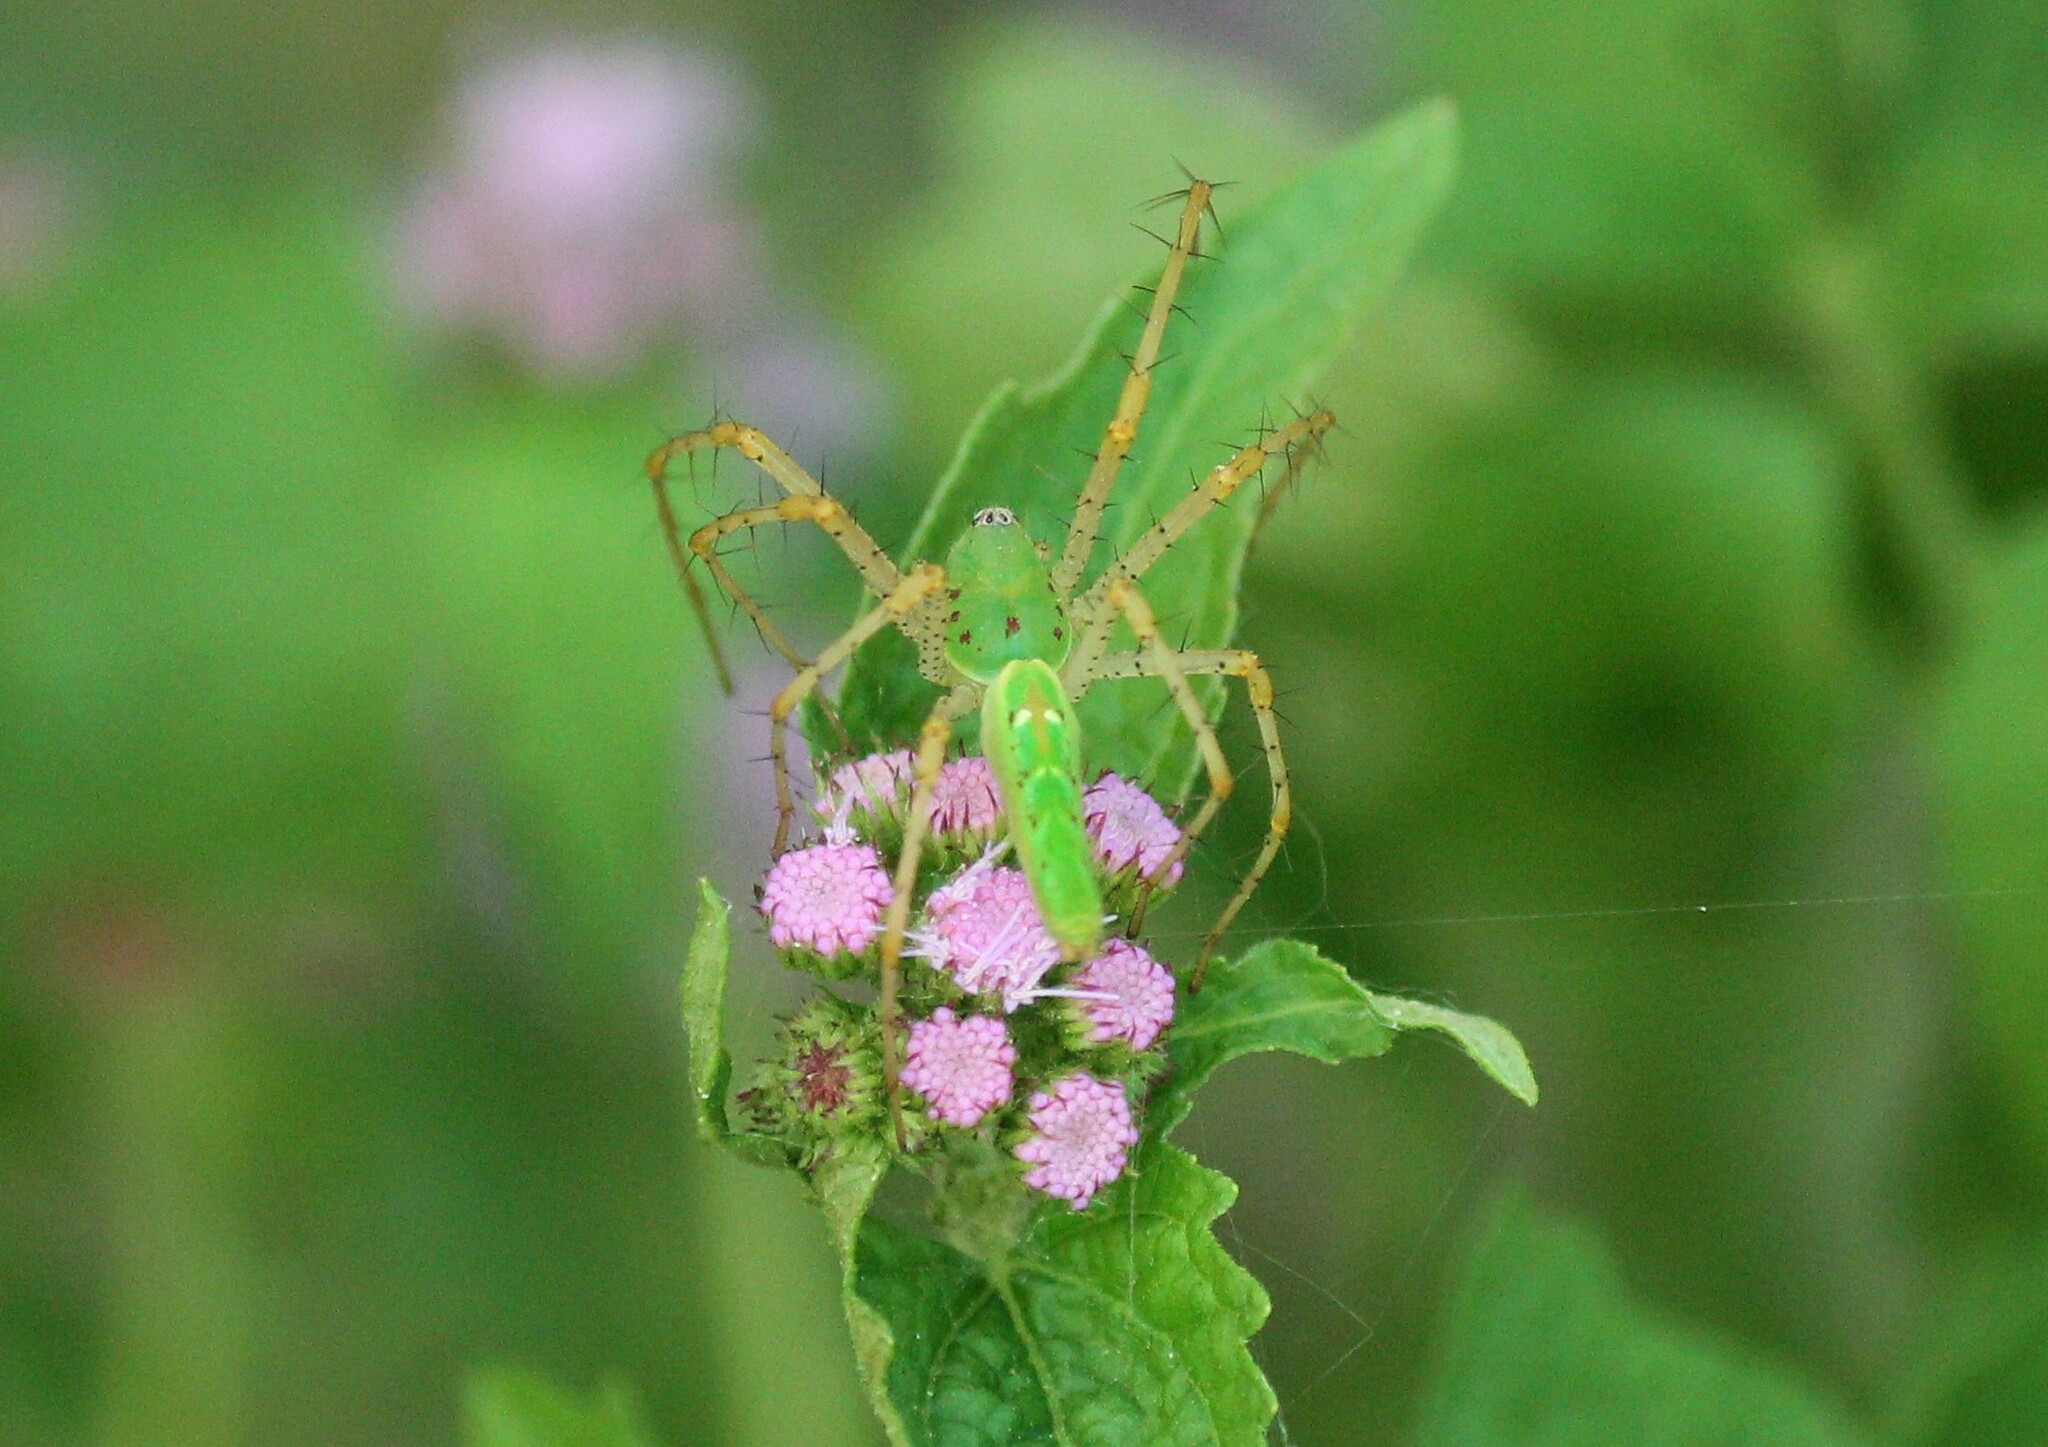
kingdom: Animalia
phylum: Arthropoda
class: Arachnida
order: Araneae
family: Oxyopidae
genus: Peucetia
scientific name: Peucetia viridans
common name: Lynx spiders
